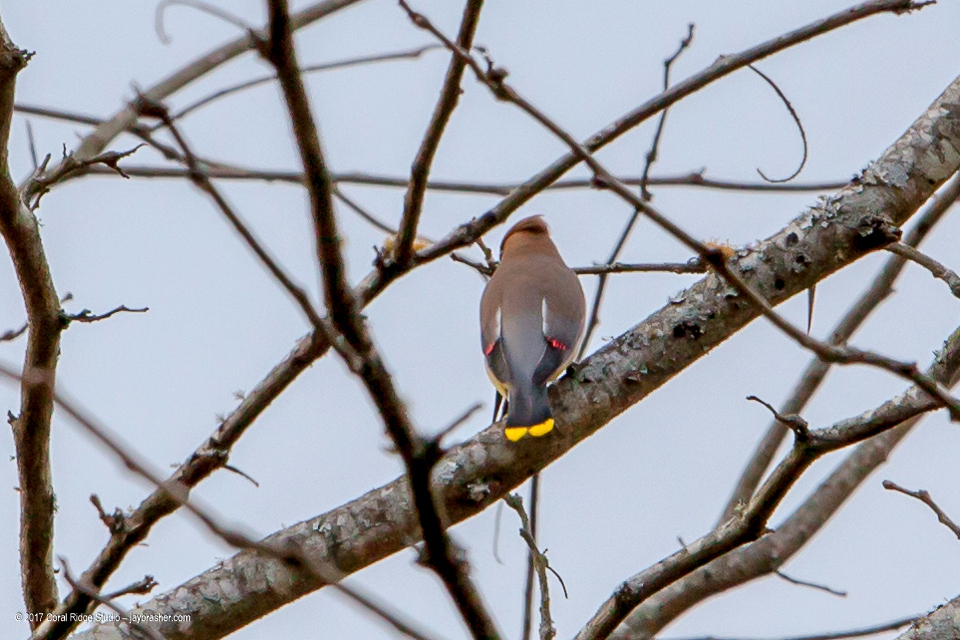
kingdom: Animalia
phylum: Chordata
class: Aves
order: Passeriformes
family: Bombycillidae
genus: Bombycilla
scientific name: Bombycilla cedrorum
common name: Cedar waxwing
